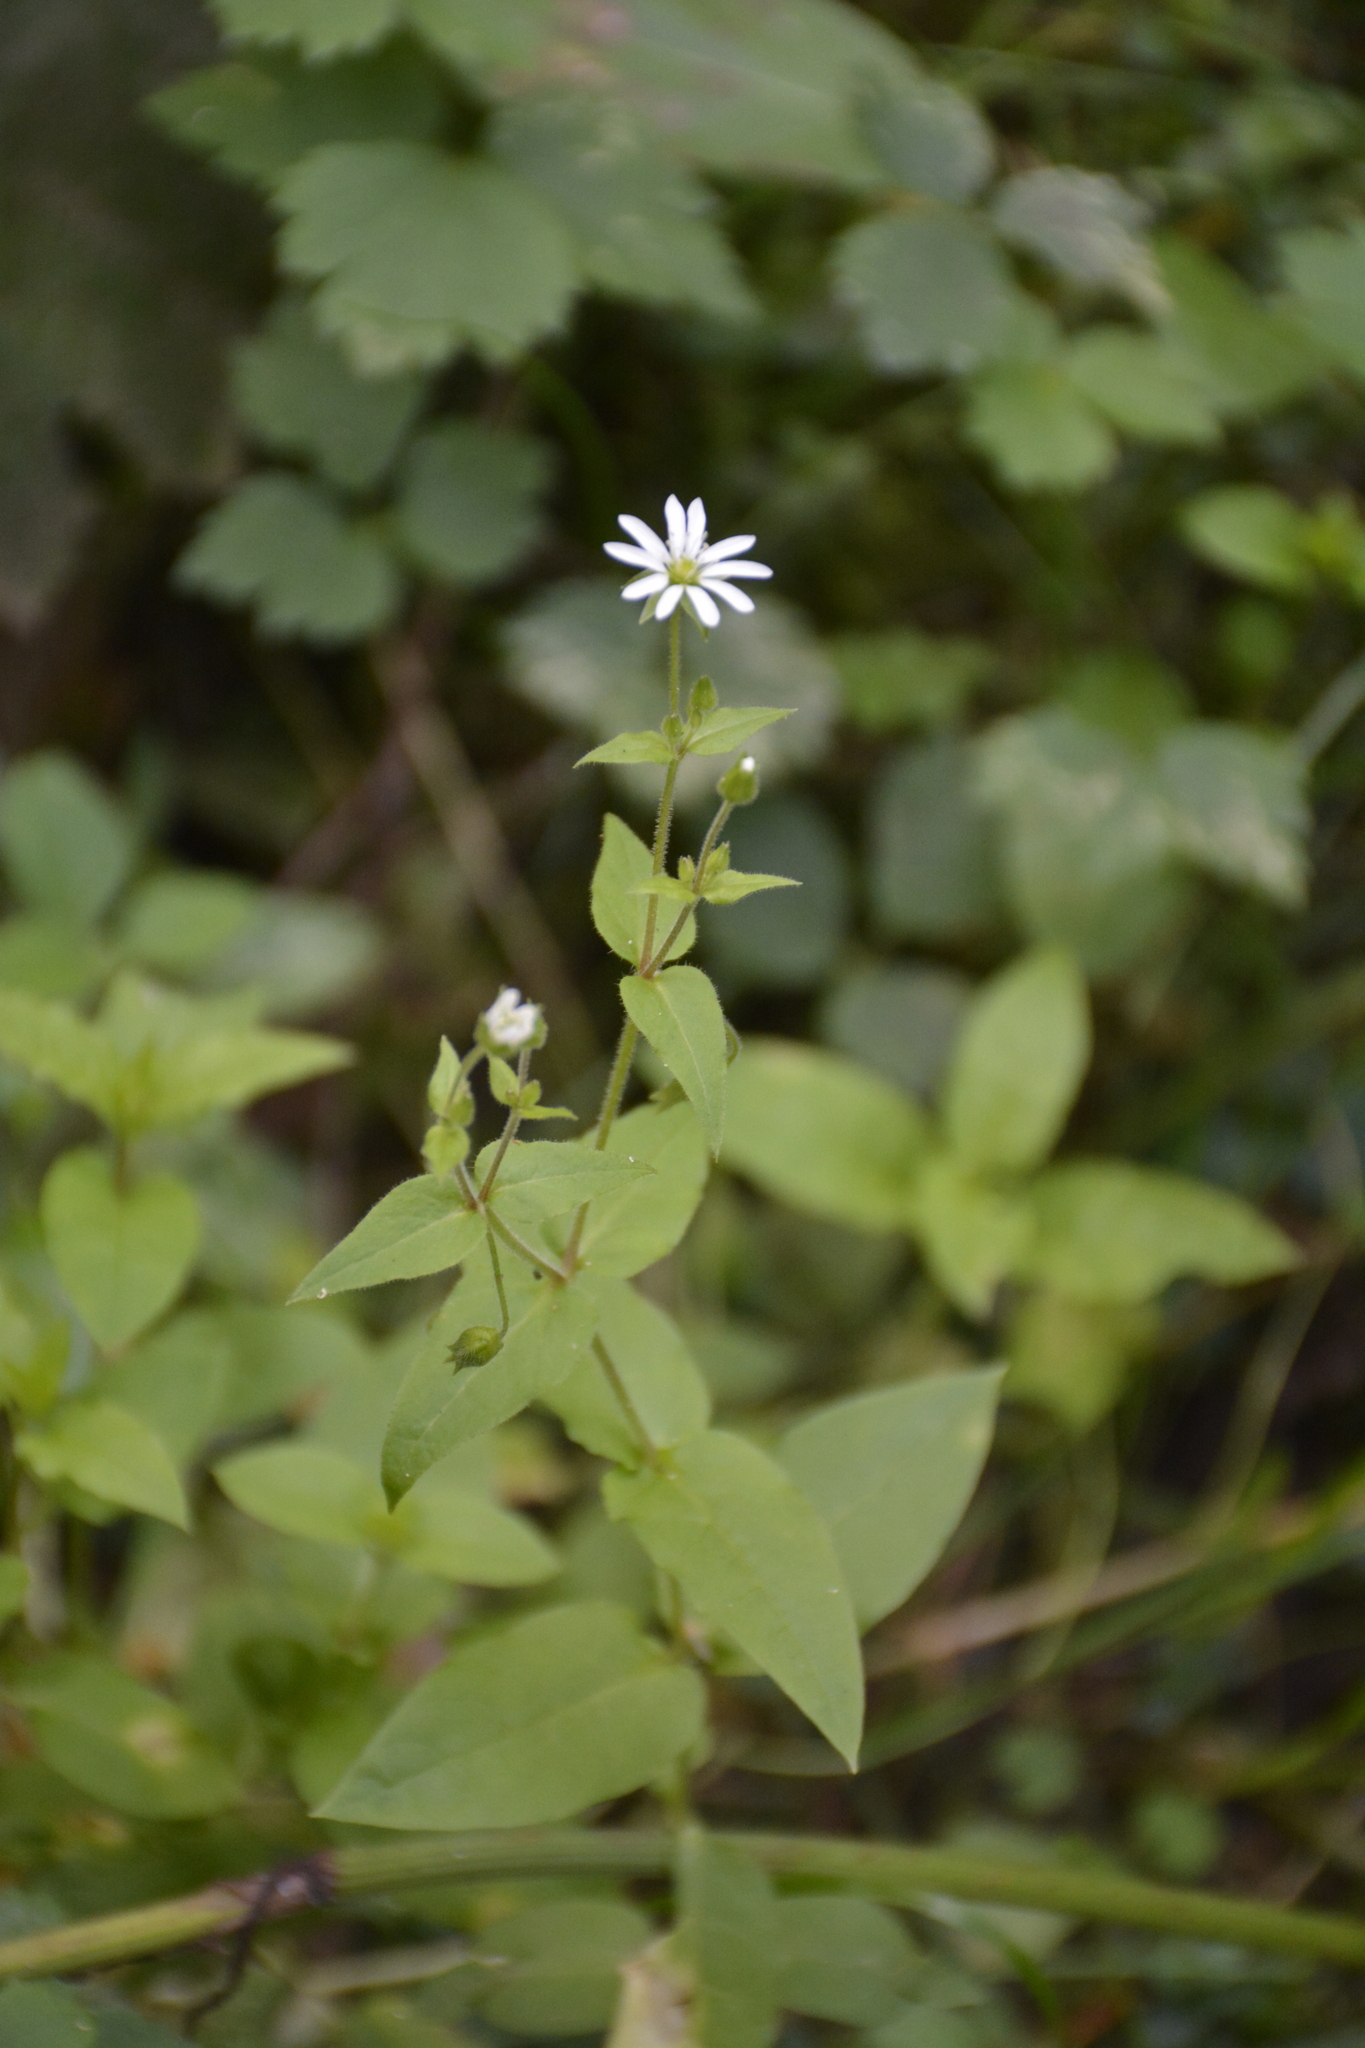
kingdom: Plantae
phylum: Tracheophyta
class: Magnoliopsida
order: Caryophyllales
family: Caryophyllaceae
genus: Stellaria
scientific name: Stellaria aquatica
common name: Water chickweed
